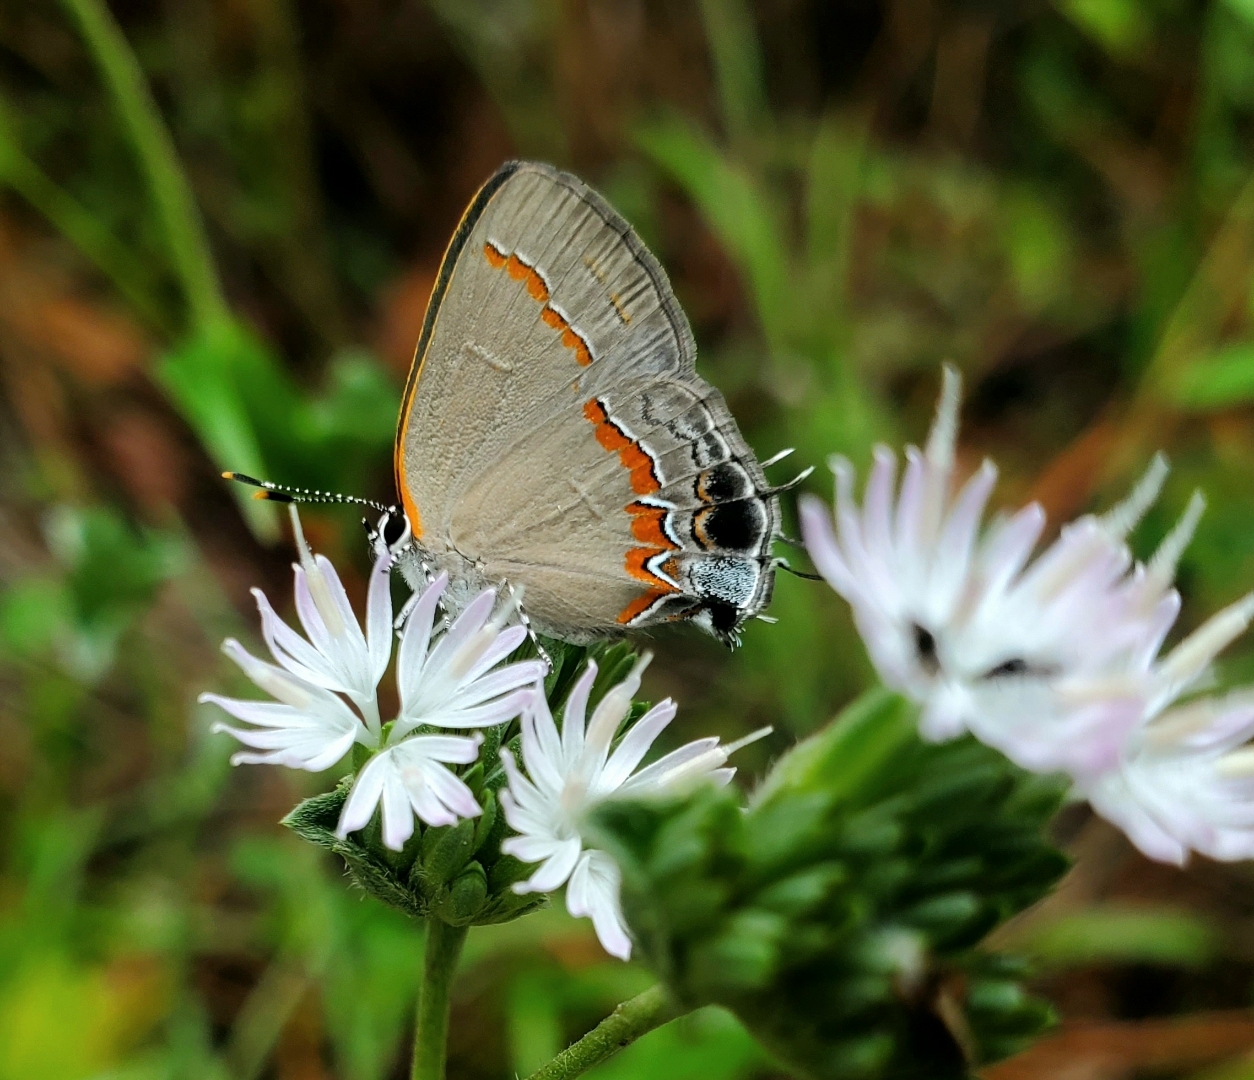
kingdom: Animalia
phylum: Arthropoda
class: Insecta
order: Lepidoptera
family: Lycaenidae
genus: Calycopis
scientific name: Calycopis cecrops
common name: Red-banded hairstreak
